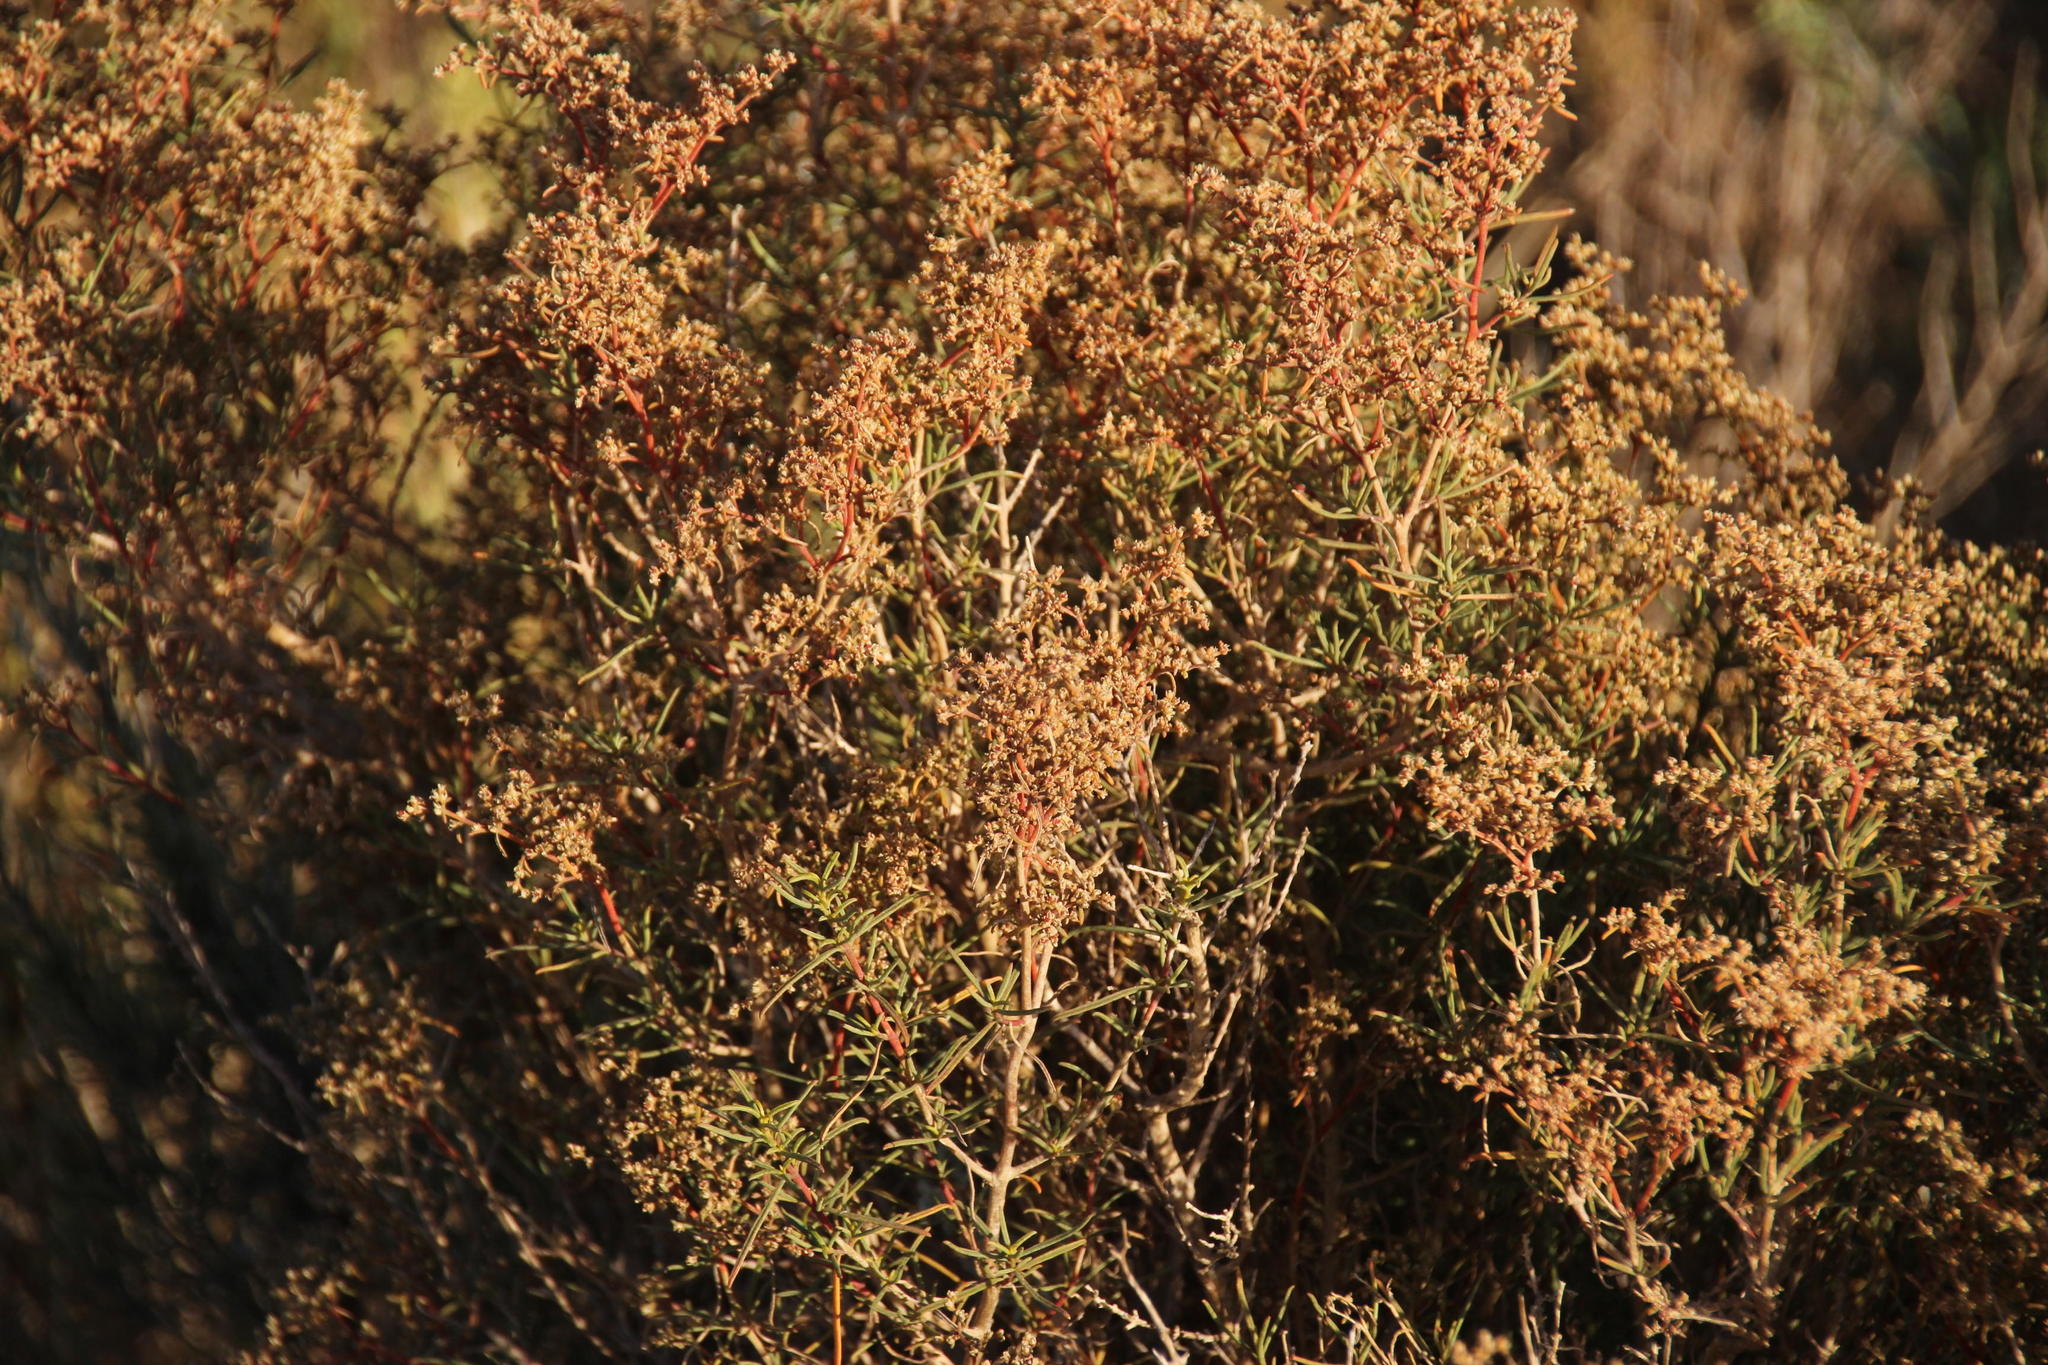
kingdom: Plantae
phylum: Tracheophyta
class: Magnoliopsida
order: Caryophyllales
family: Aizoaceae
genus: Aizoon
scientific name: Aizoon africanum
